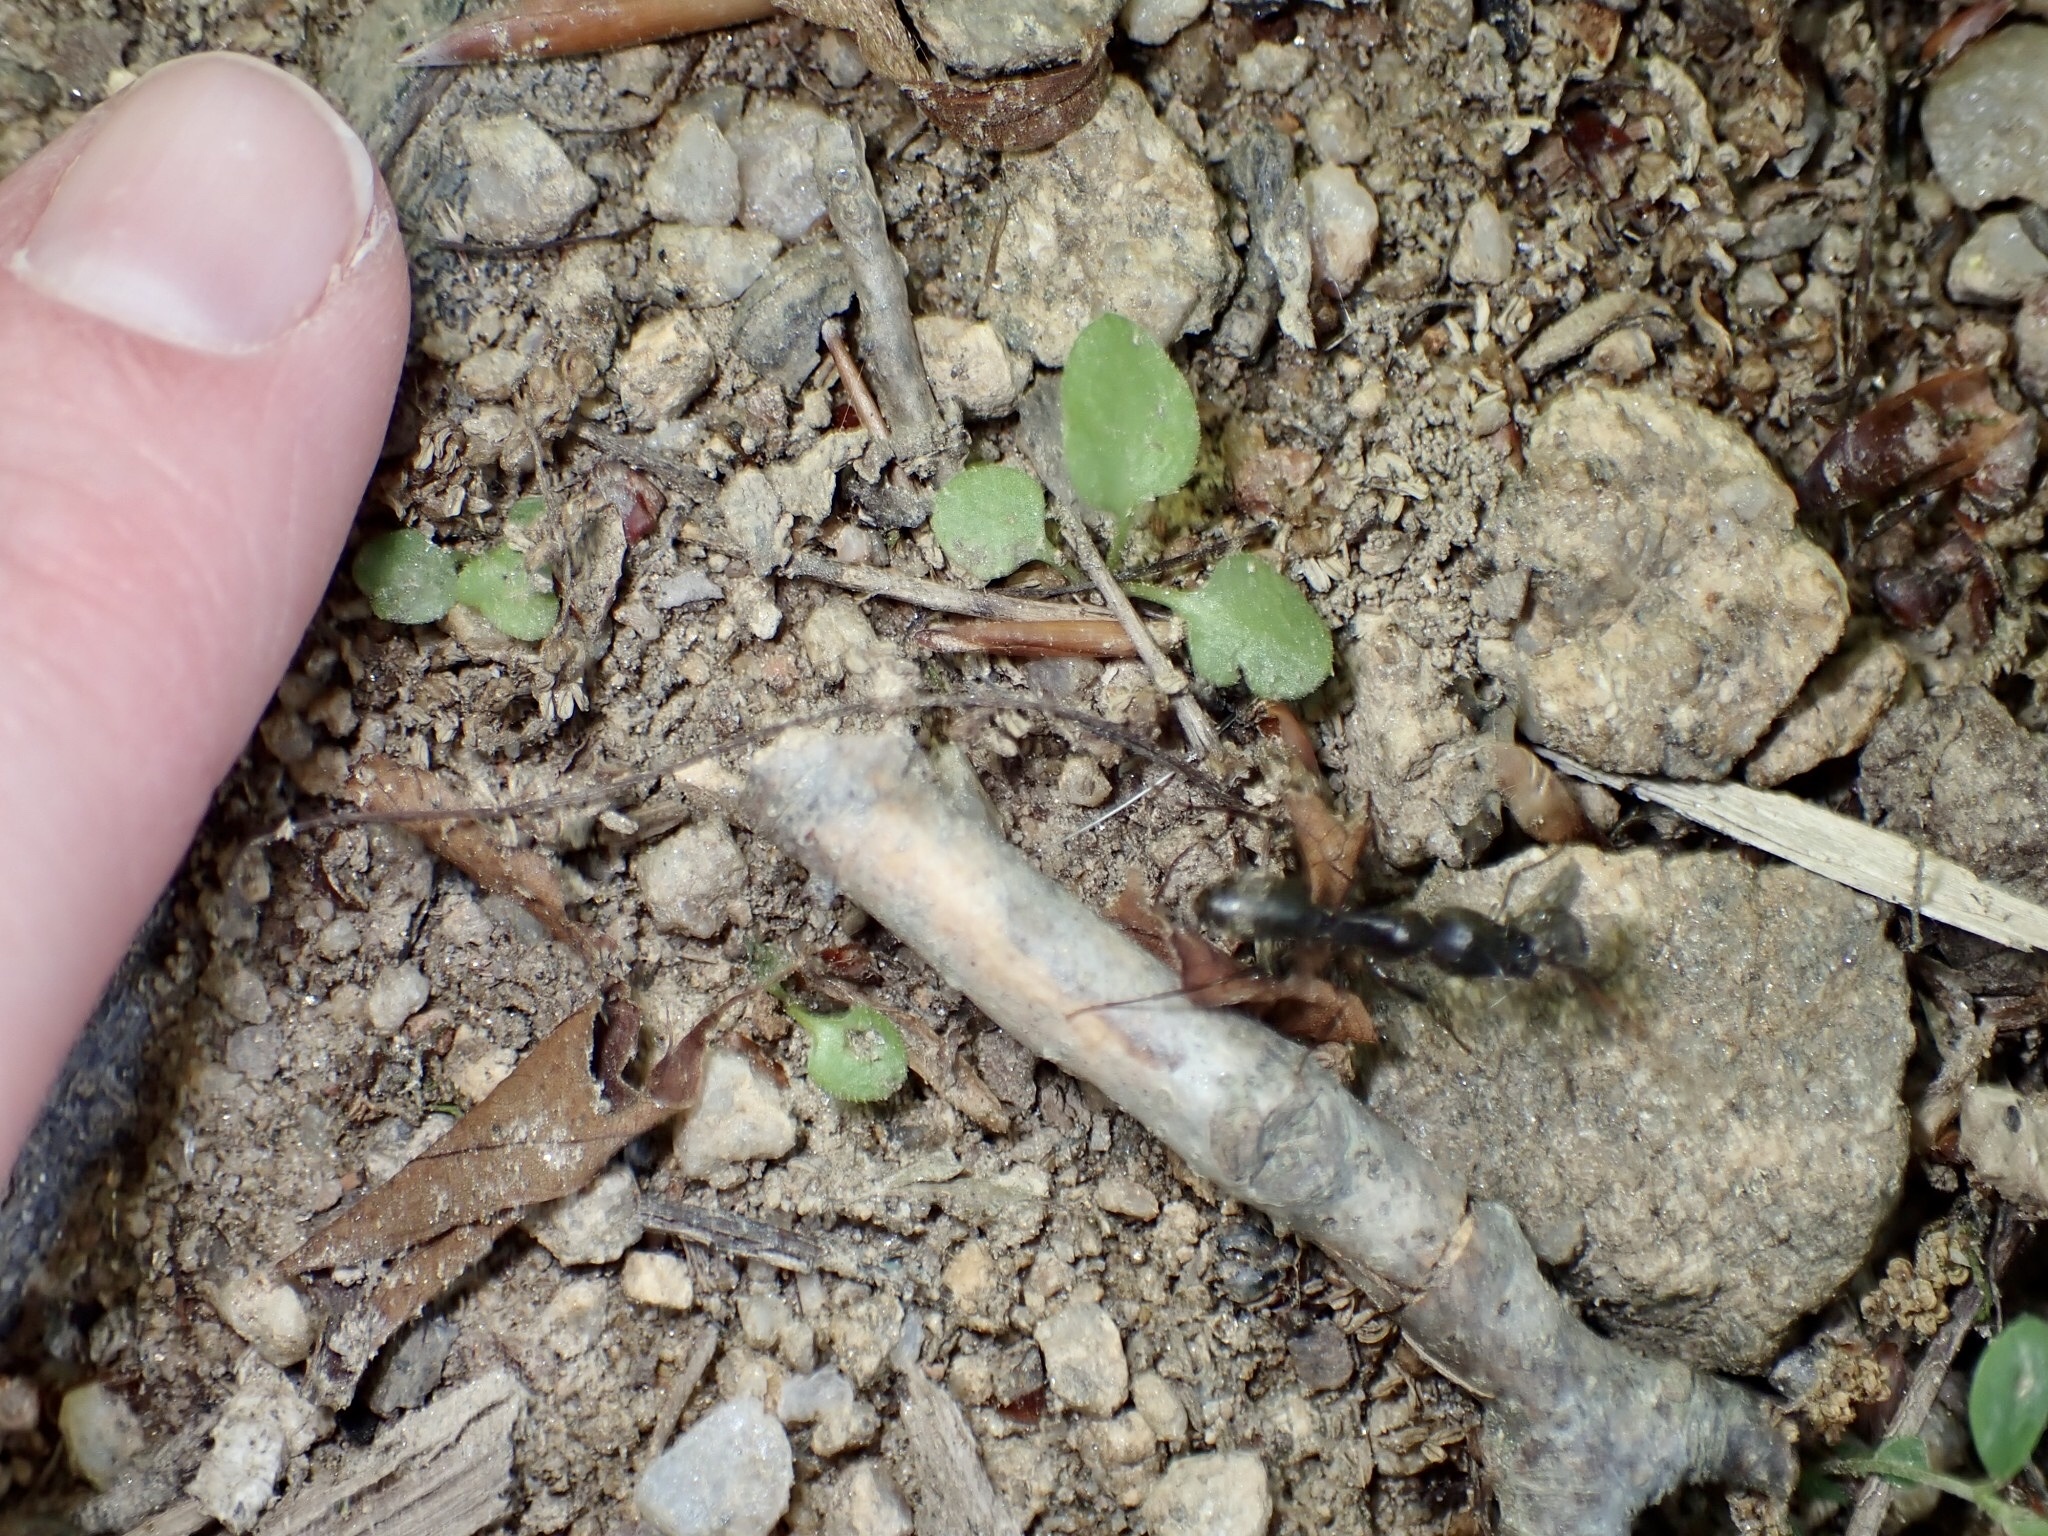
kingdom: Animalia
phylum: Arthropoda
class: Insecta
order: Hymenoptera
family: Formicidae
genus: Camponotus
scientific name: Camponotus pennsylvanicus
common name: Black carpenter ant
